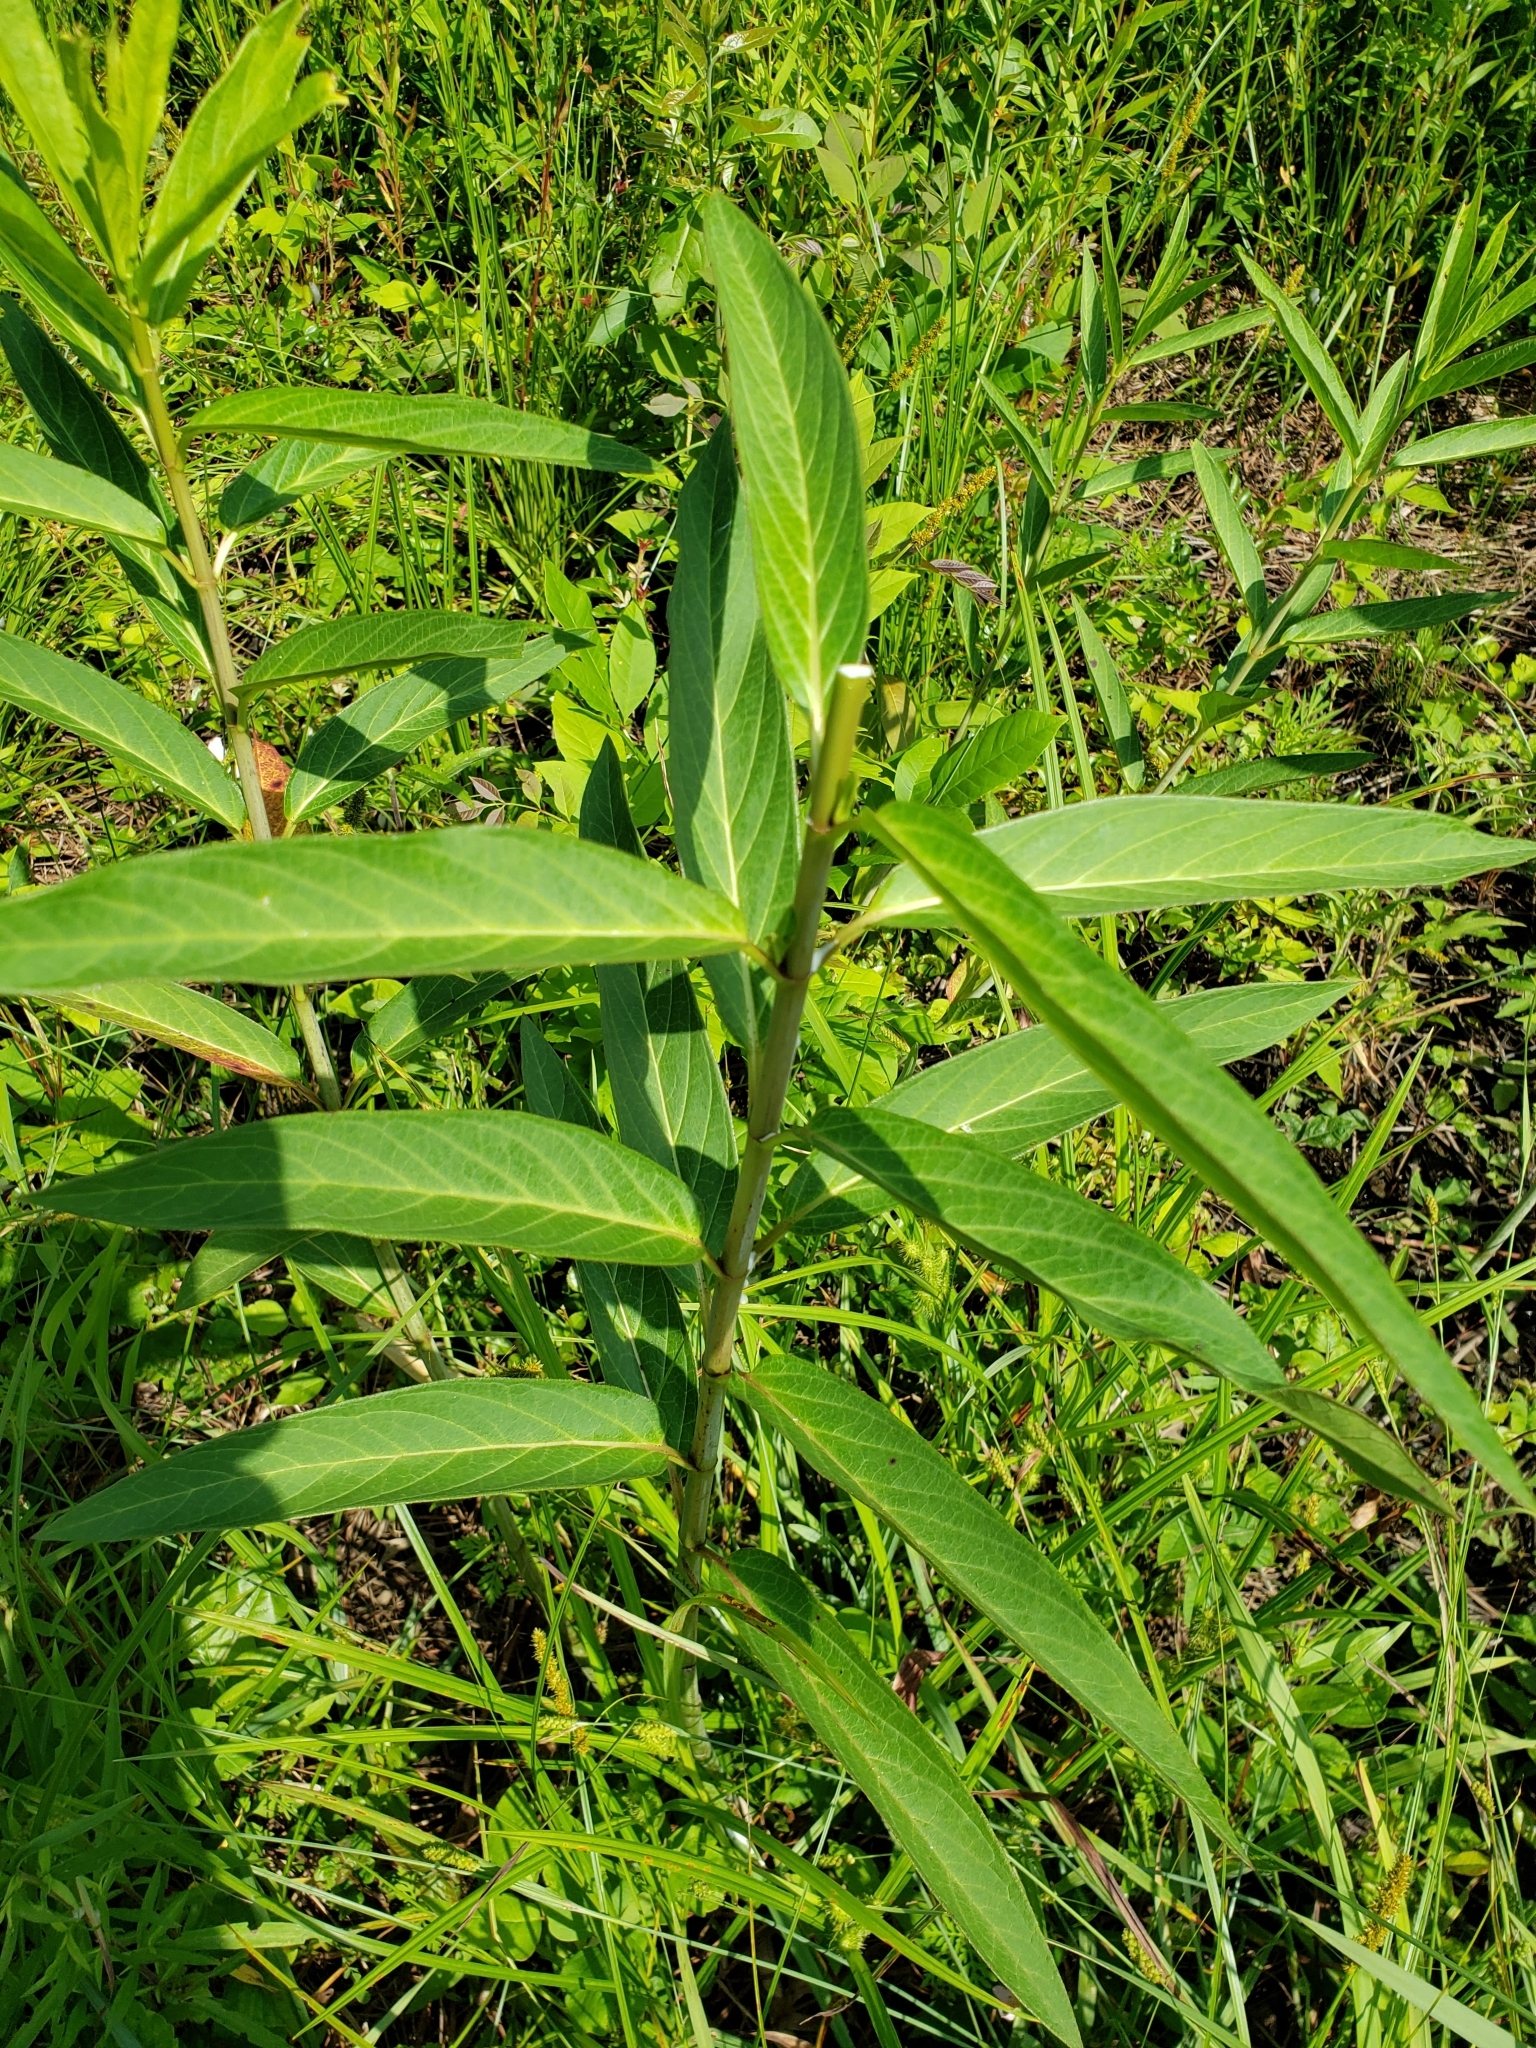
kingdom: Plantae
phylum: Tracheophyta
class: Magnoliopsida
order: Gentianales
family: Apocynaceae
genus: Asclepias
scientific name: Asclepias incarnata
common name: Swamp milkweed
